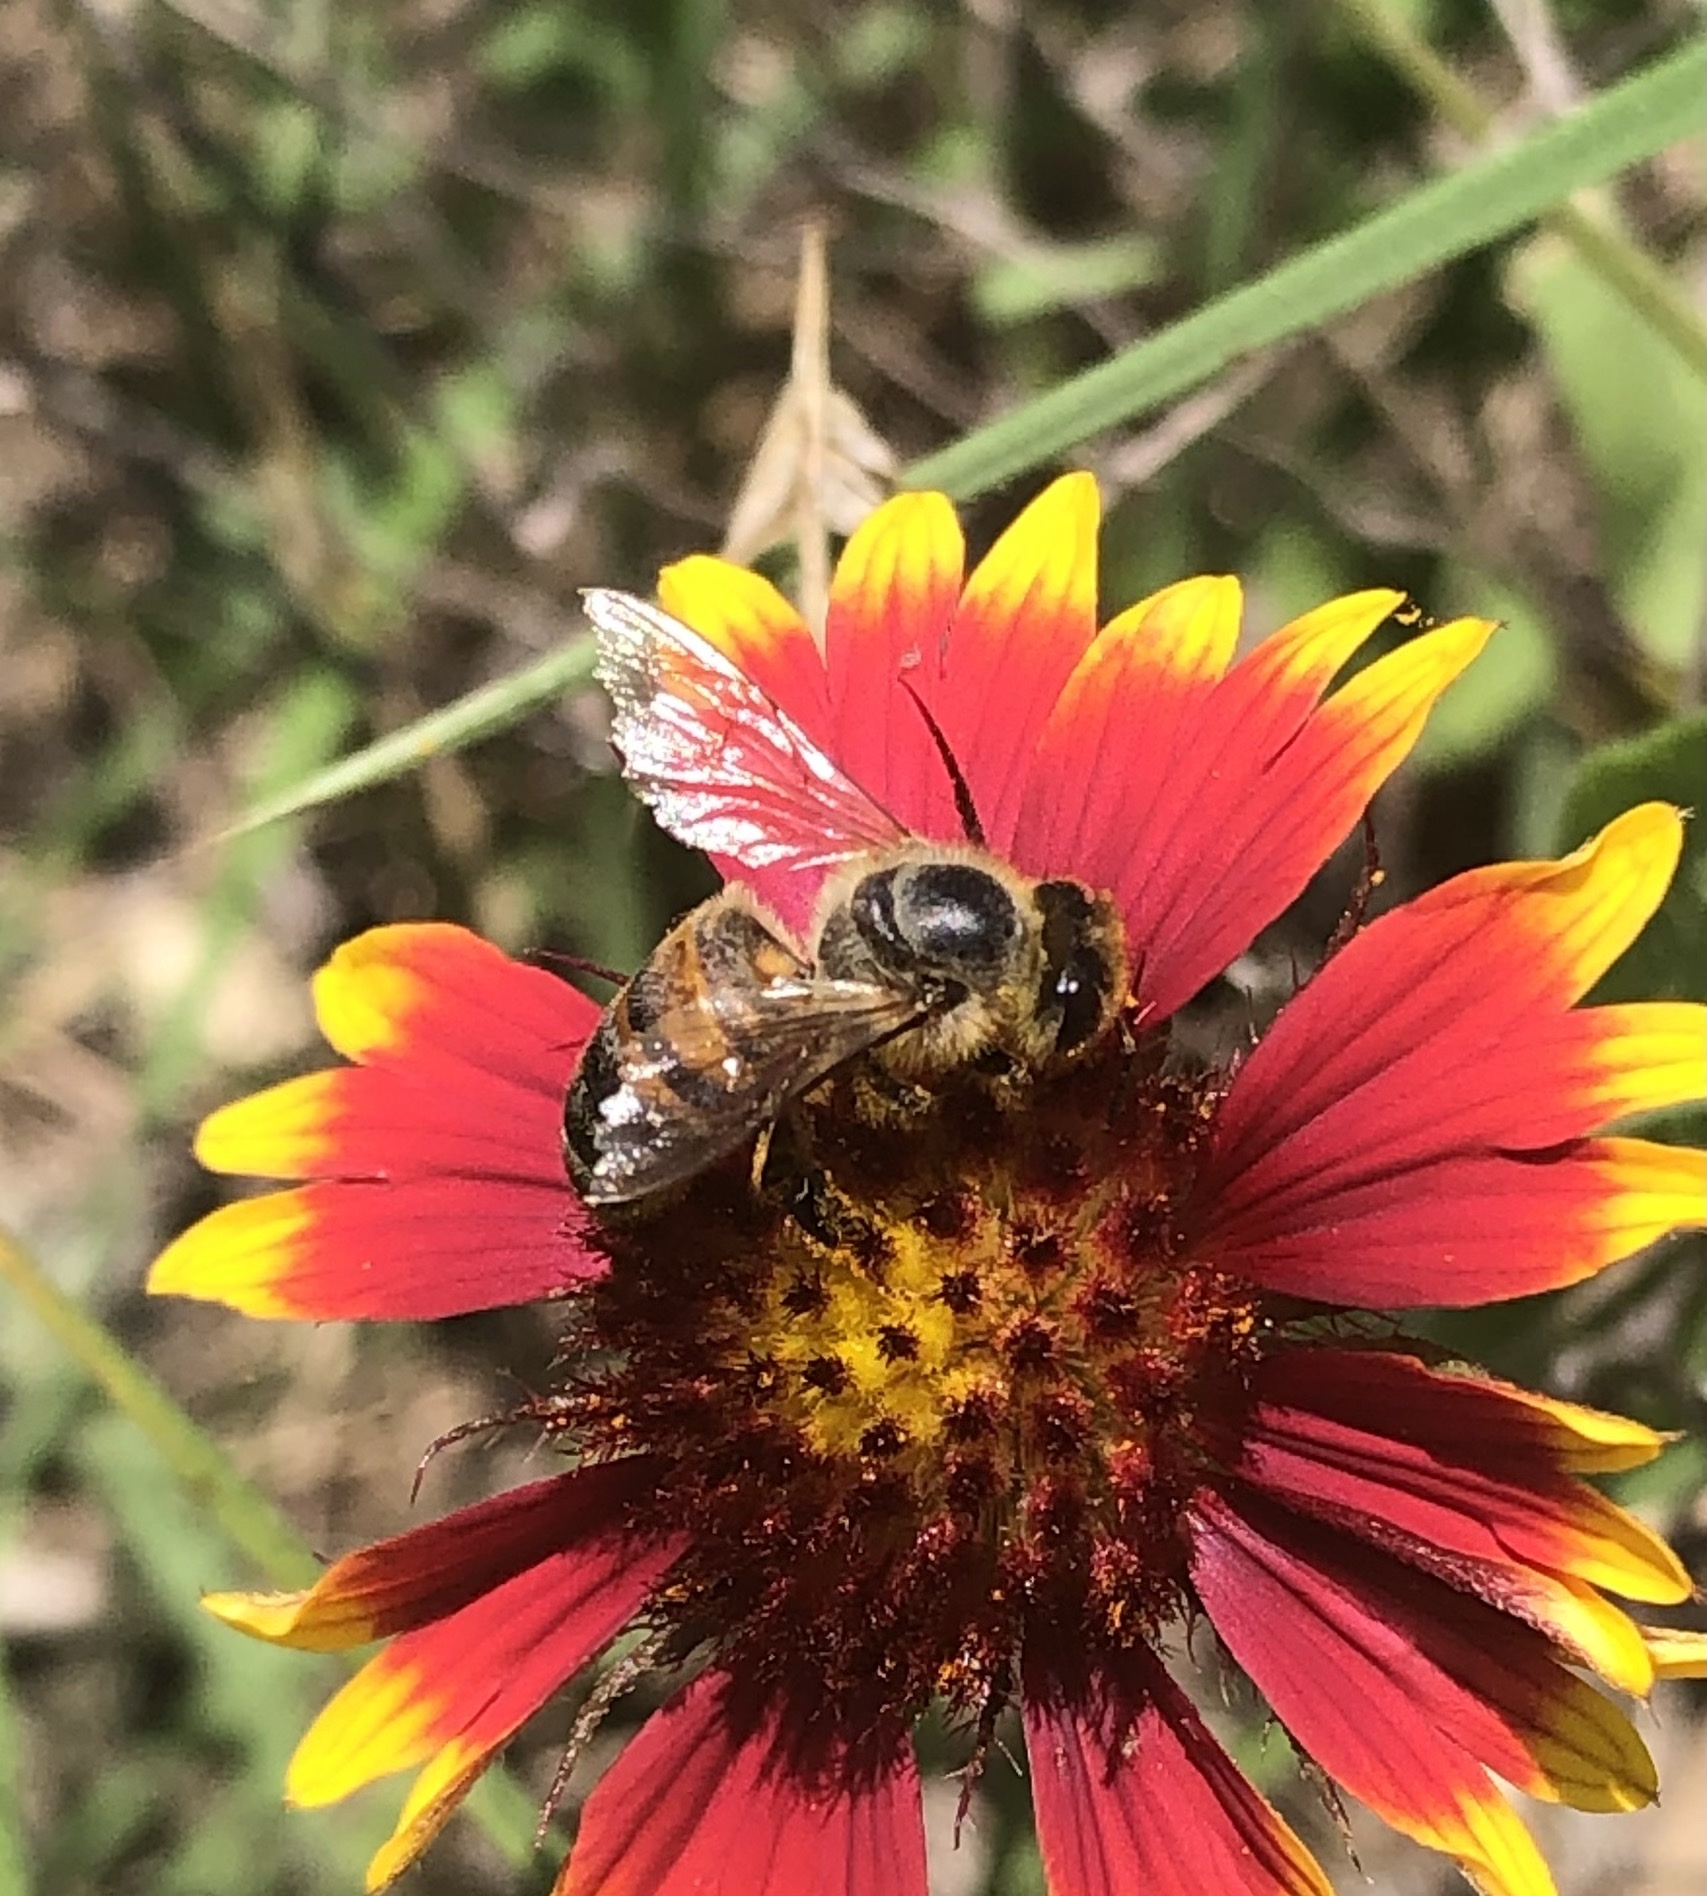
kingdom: Animalia
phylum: Arthropoda
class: Insecta
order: Hymenoptera
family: Apidae
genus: Apis
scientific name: Apis mellifera
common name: Honey bee
